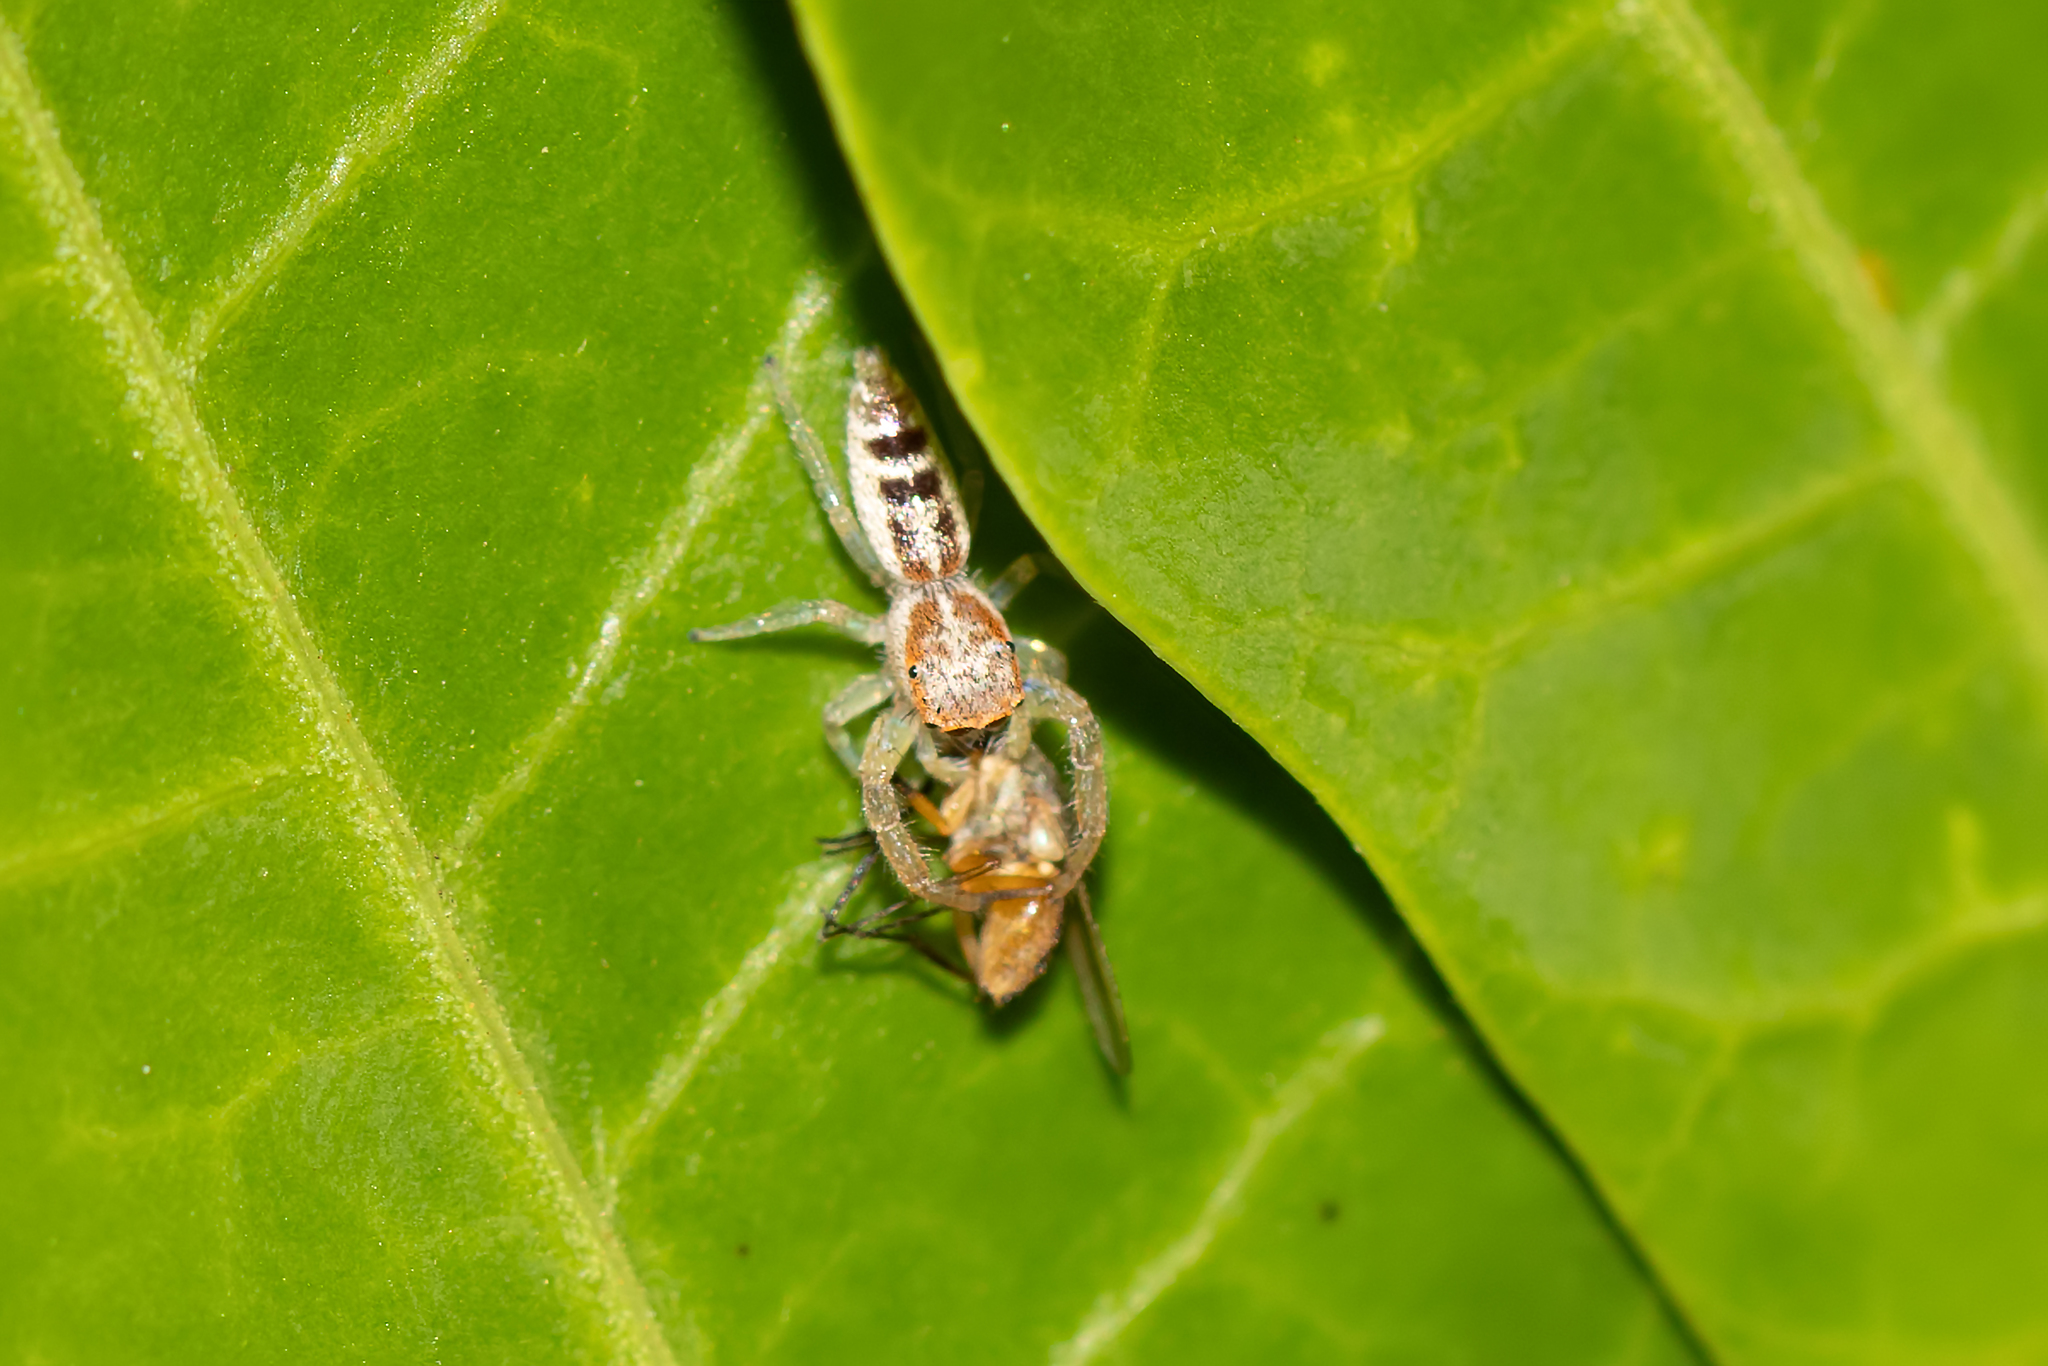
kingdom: Animalia
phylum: Arthropoda
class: Arachnida
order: Araneae
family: Salticidae
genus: Hentzia
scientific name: Hentzia mitrata
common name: White-jawed jumping spider
